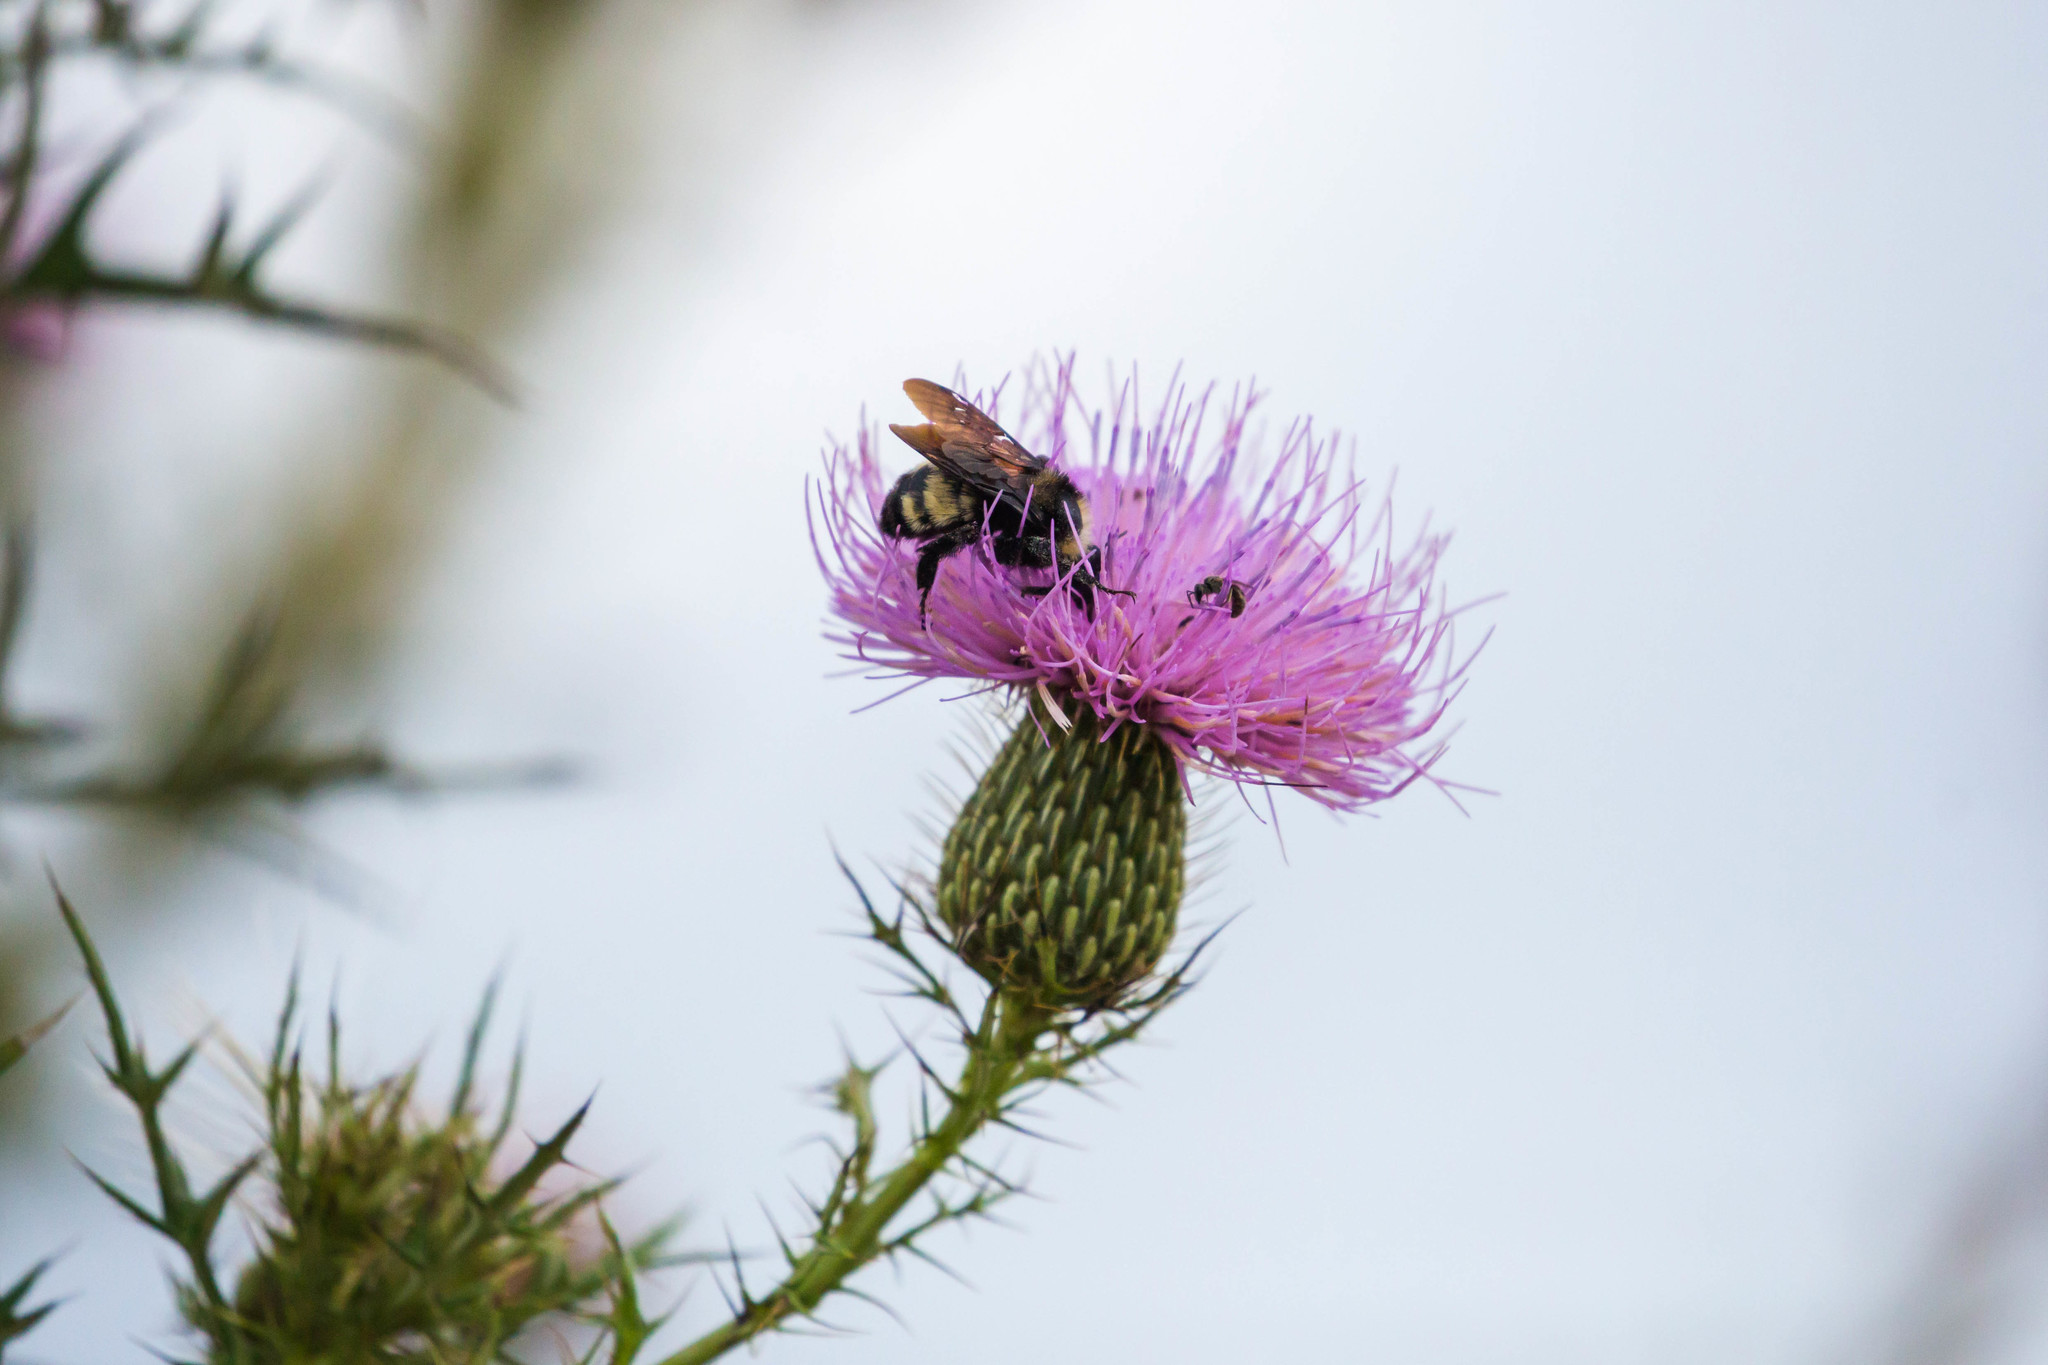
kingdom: Animalia
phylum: Arthropoda
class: Insecta
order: Hymenoptera
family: Apidae
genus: Bombus
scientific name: Bombus pensylvanicus
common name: Bumble bee
